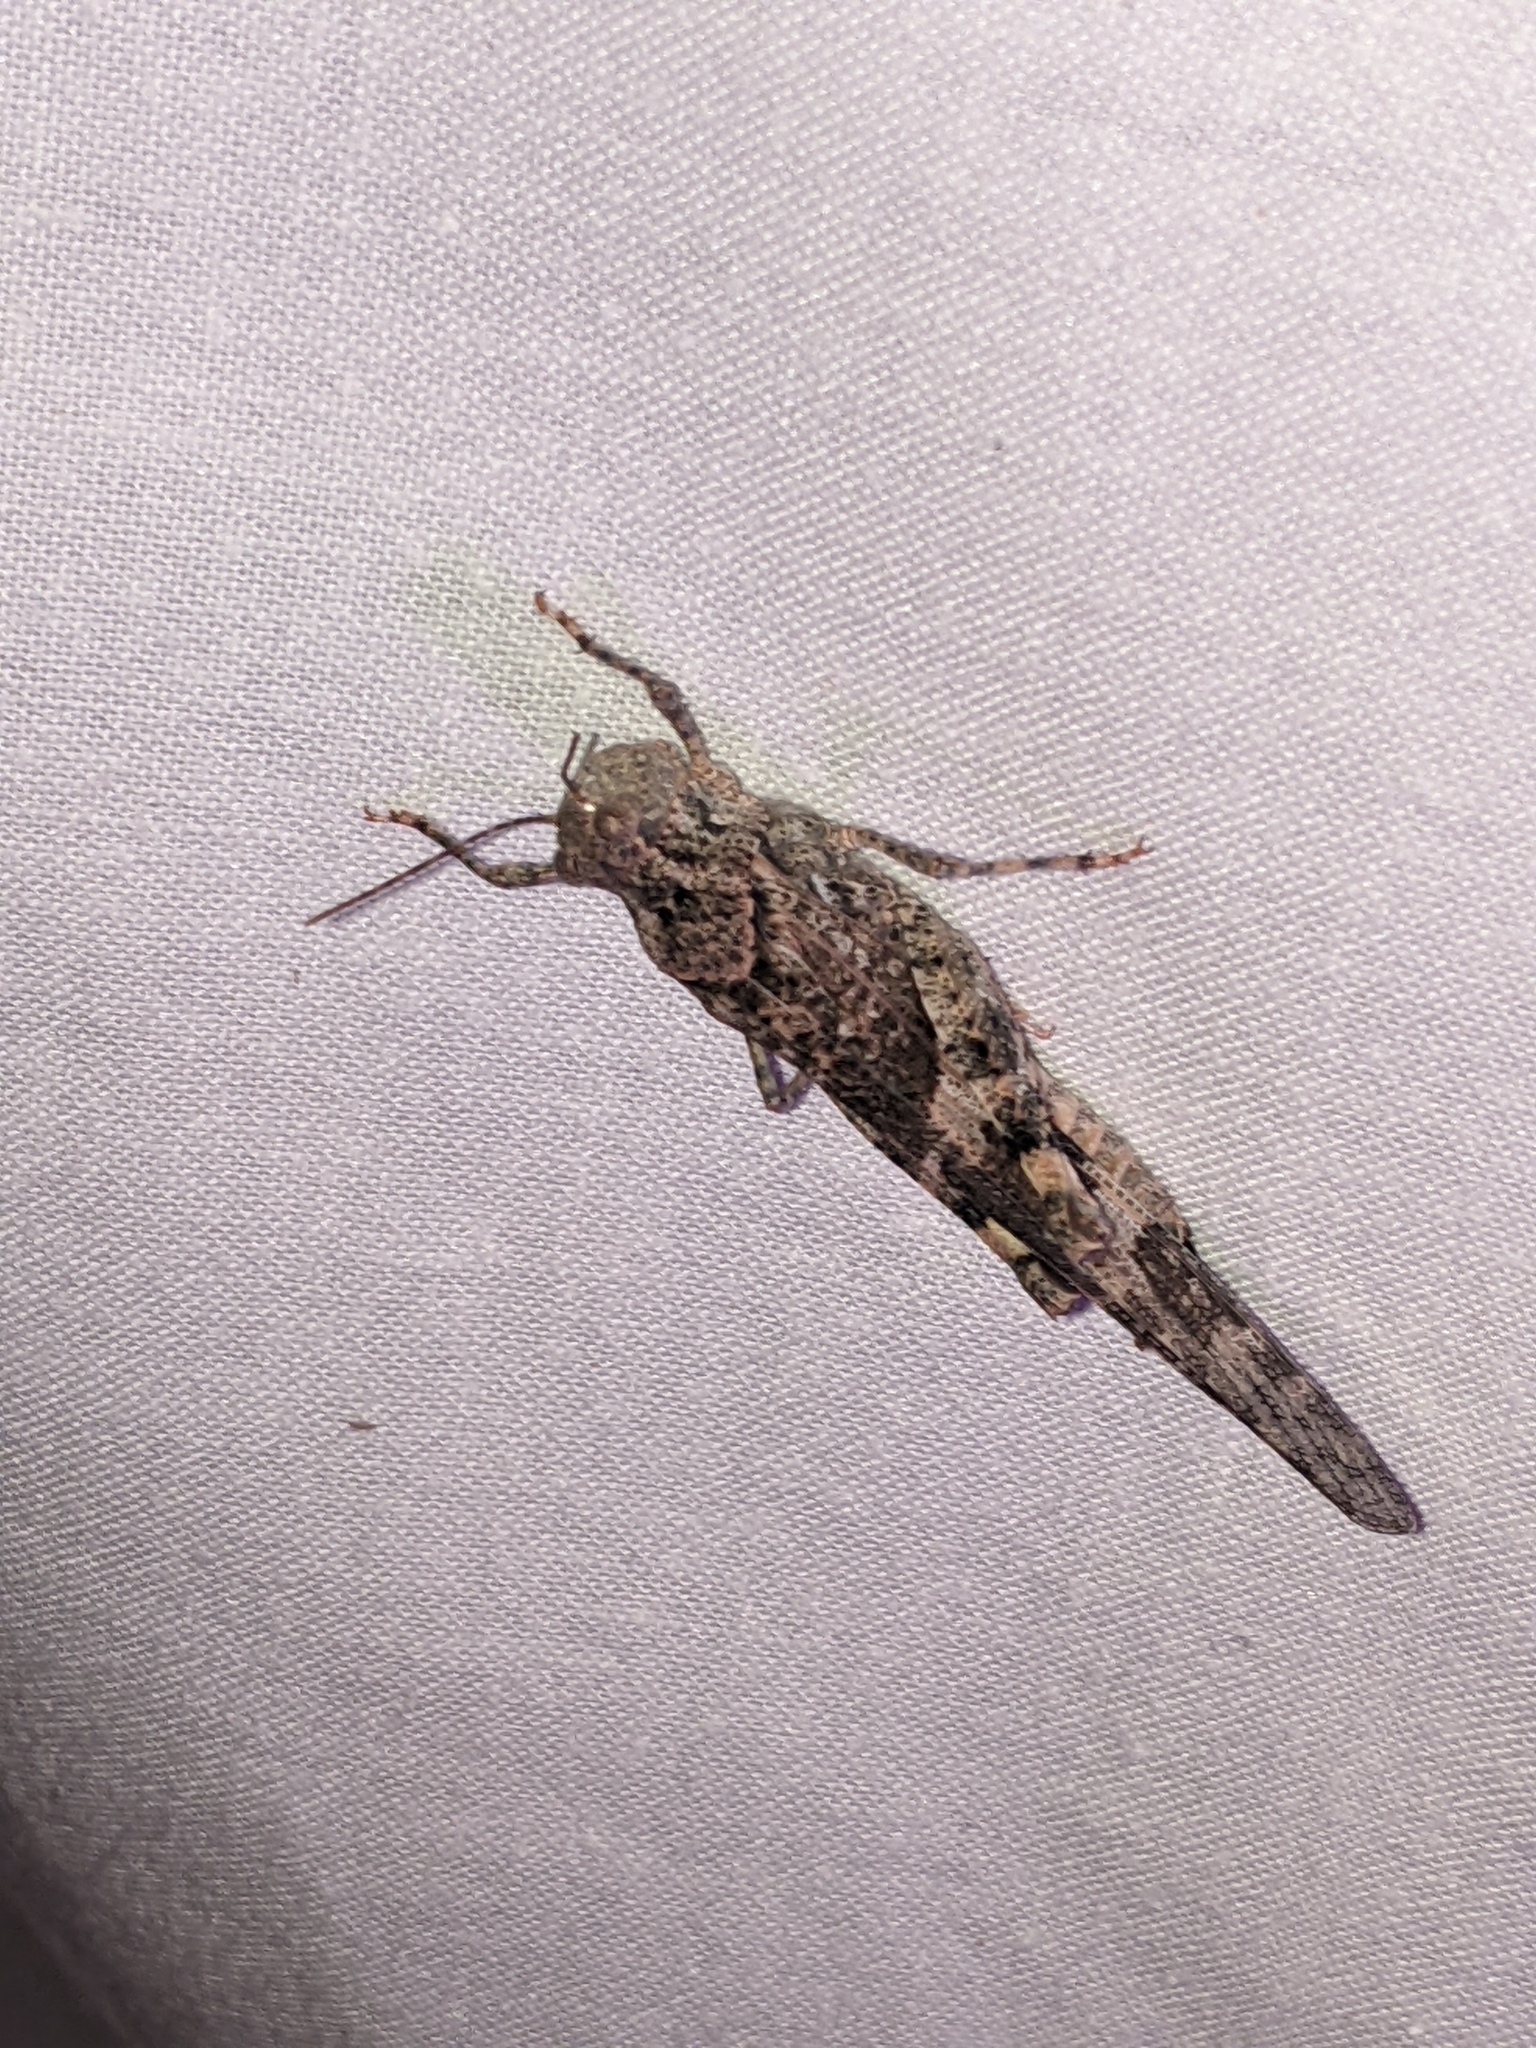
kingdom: Animalia
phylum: Arthropoda
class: Insecta
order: Orthoptera
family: Acrididae
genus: Trimerotropis
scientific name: Trimerotropis pallidipennis
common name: Pallid-winged grasshopper
